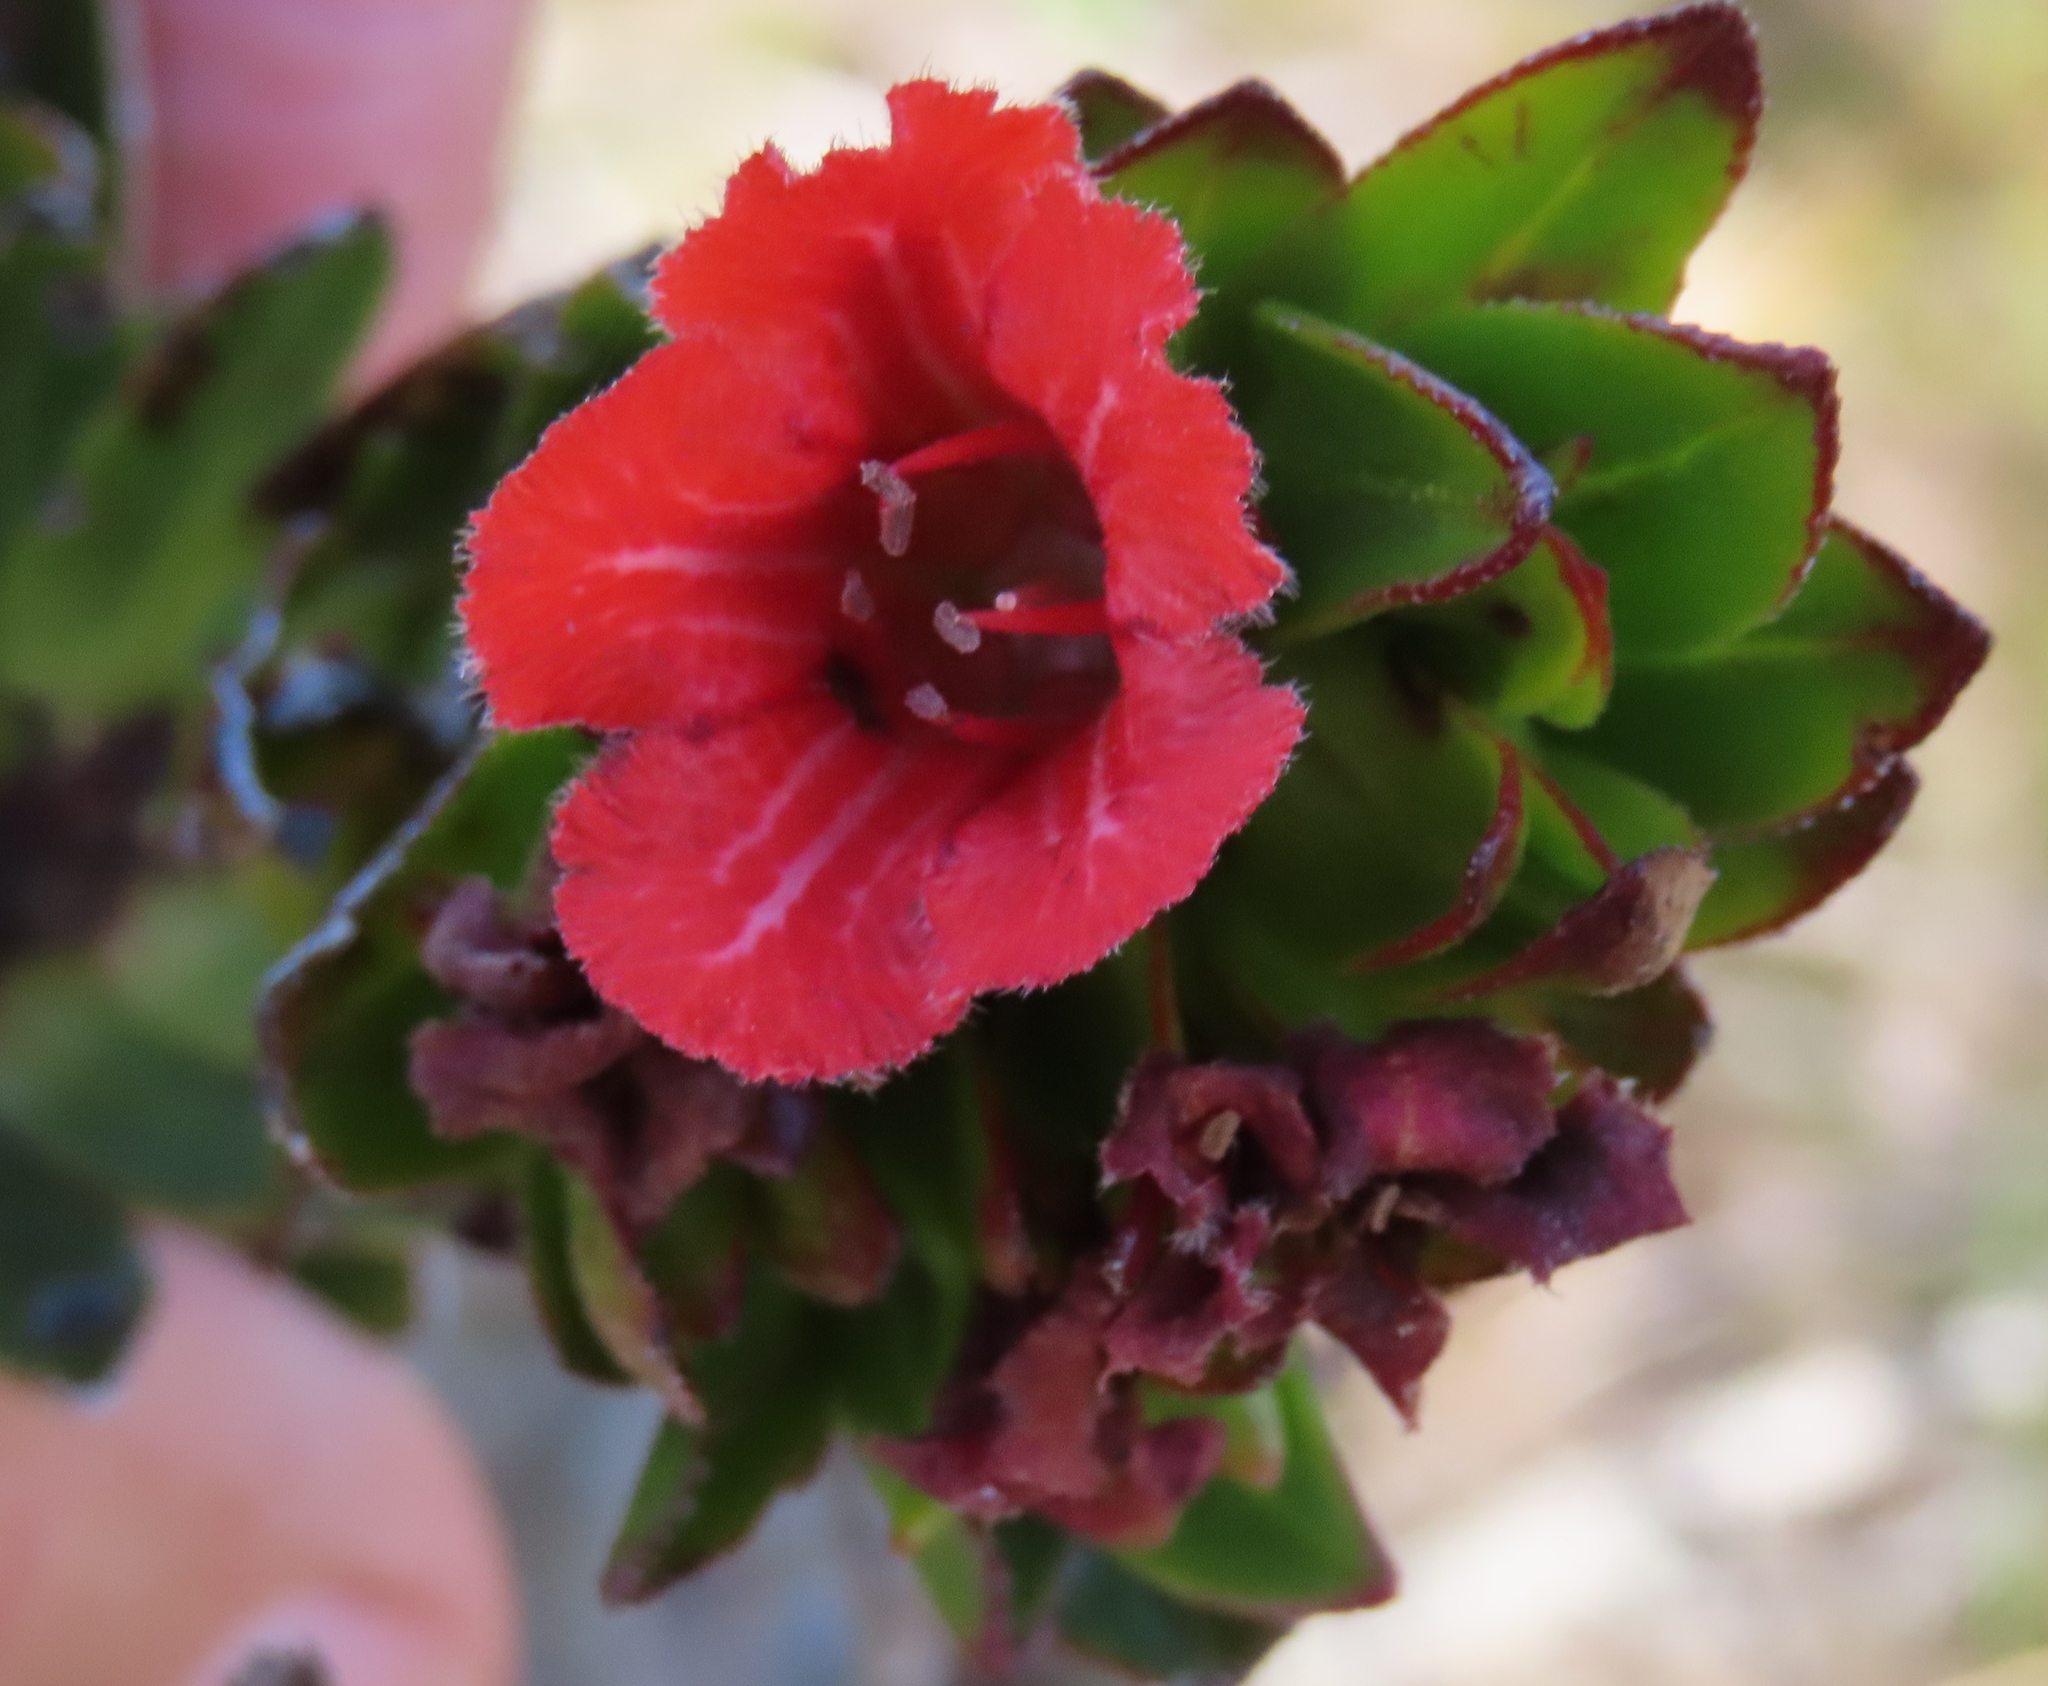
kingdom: Plantae
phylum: Tracheophyta
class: Magnoliopsida
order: Boraginales
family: Boraginaceae
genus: Lobostemon
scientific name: Lobostemon sanguineus
